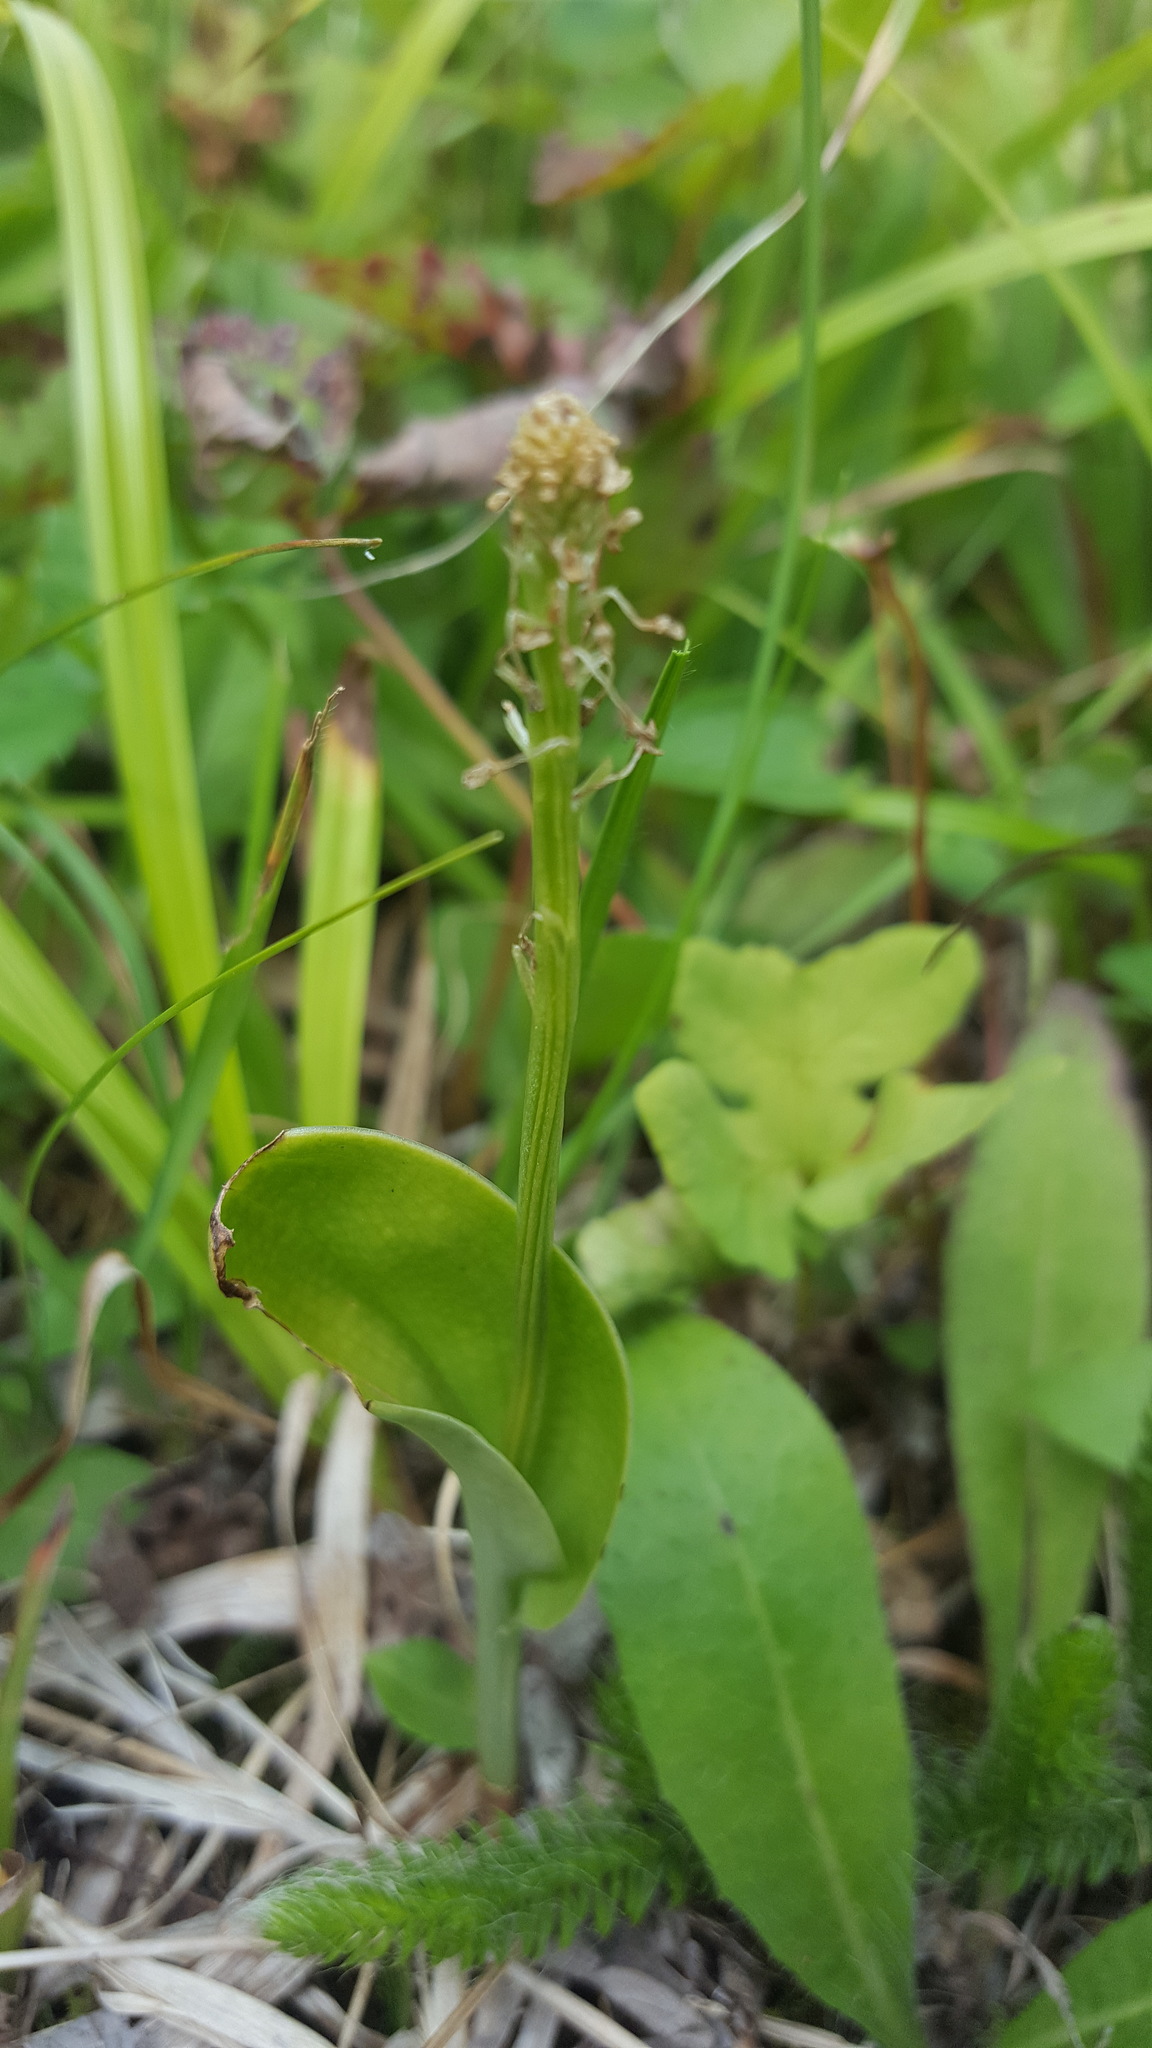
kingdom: Plantae
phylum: Tracheophyta
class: Liliopsida
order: Asparagales
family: Orchidaceae
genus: Malaxis
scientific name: Malaxis unifolia
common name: Green adder's-mouth
